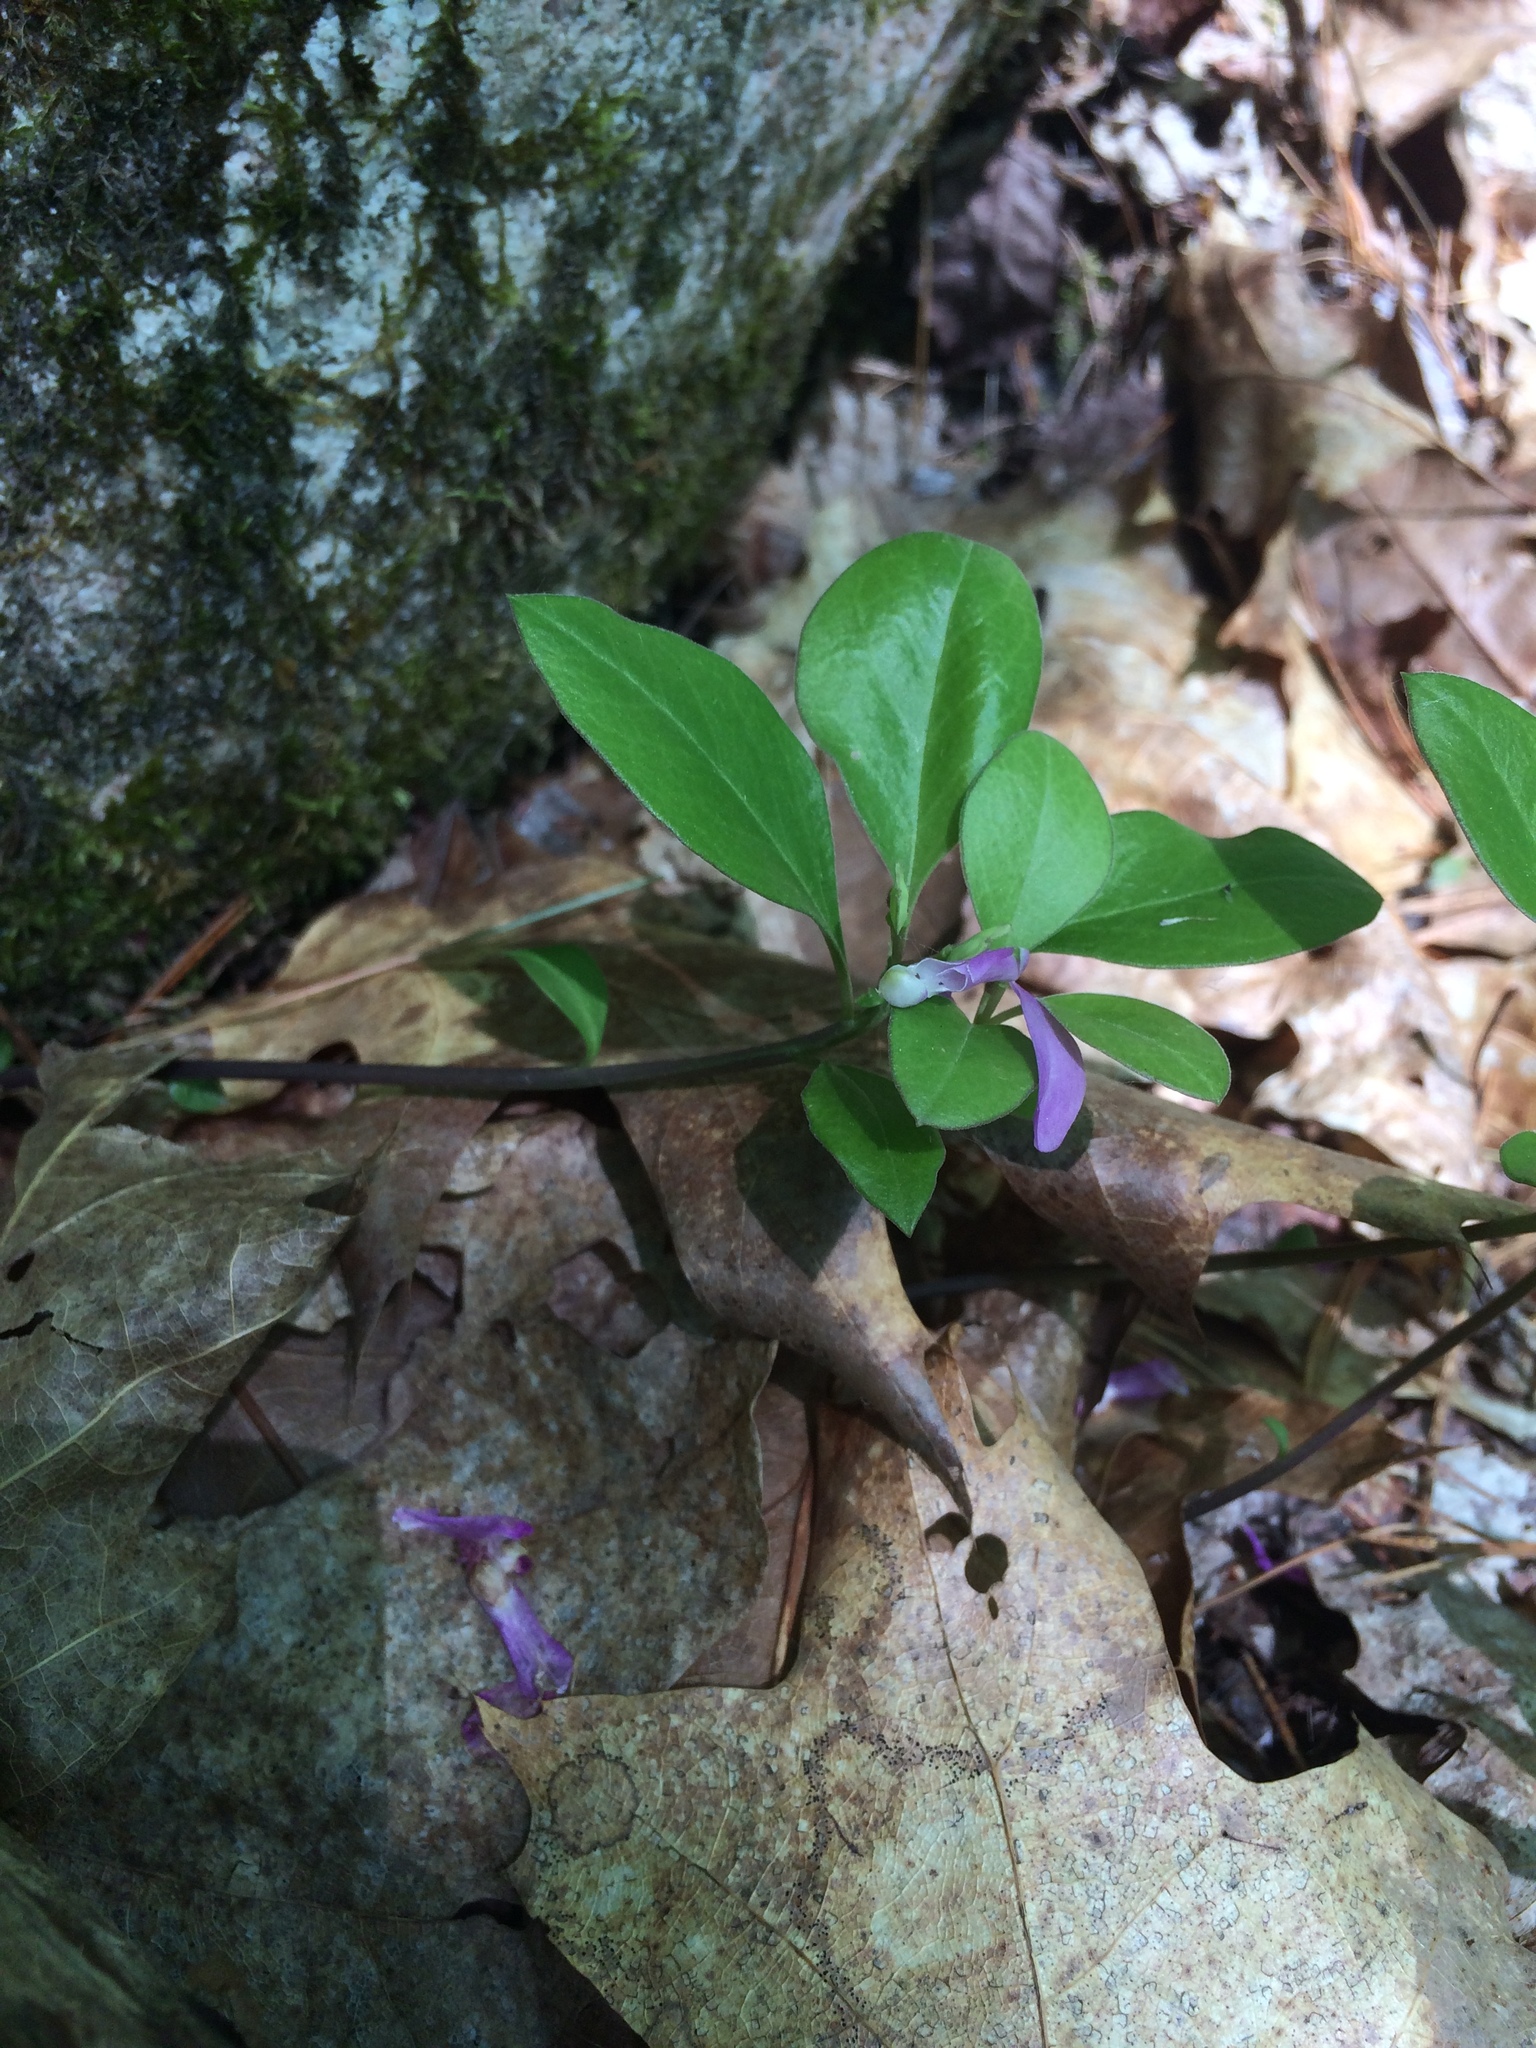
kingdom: Plantae
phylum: Tracheophyta
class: Magnoliopsida
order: Fabales
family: Polygalaceae
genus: Polygaloides
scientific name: Polygaloides paucifolia
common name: Bird-on-the-wing
